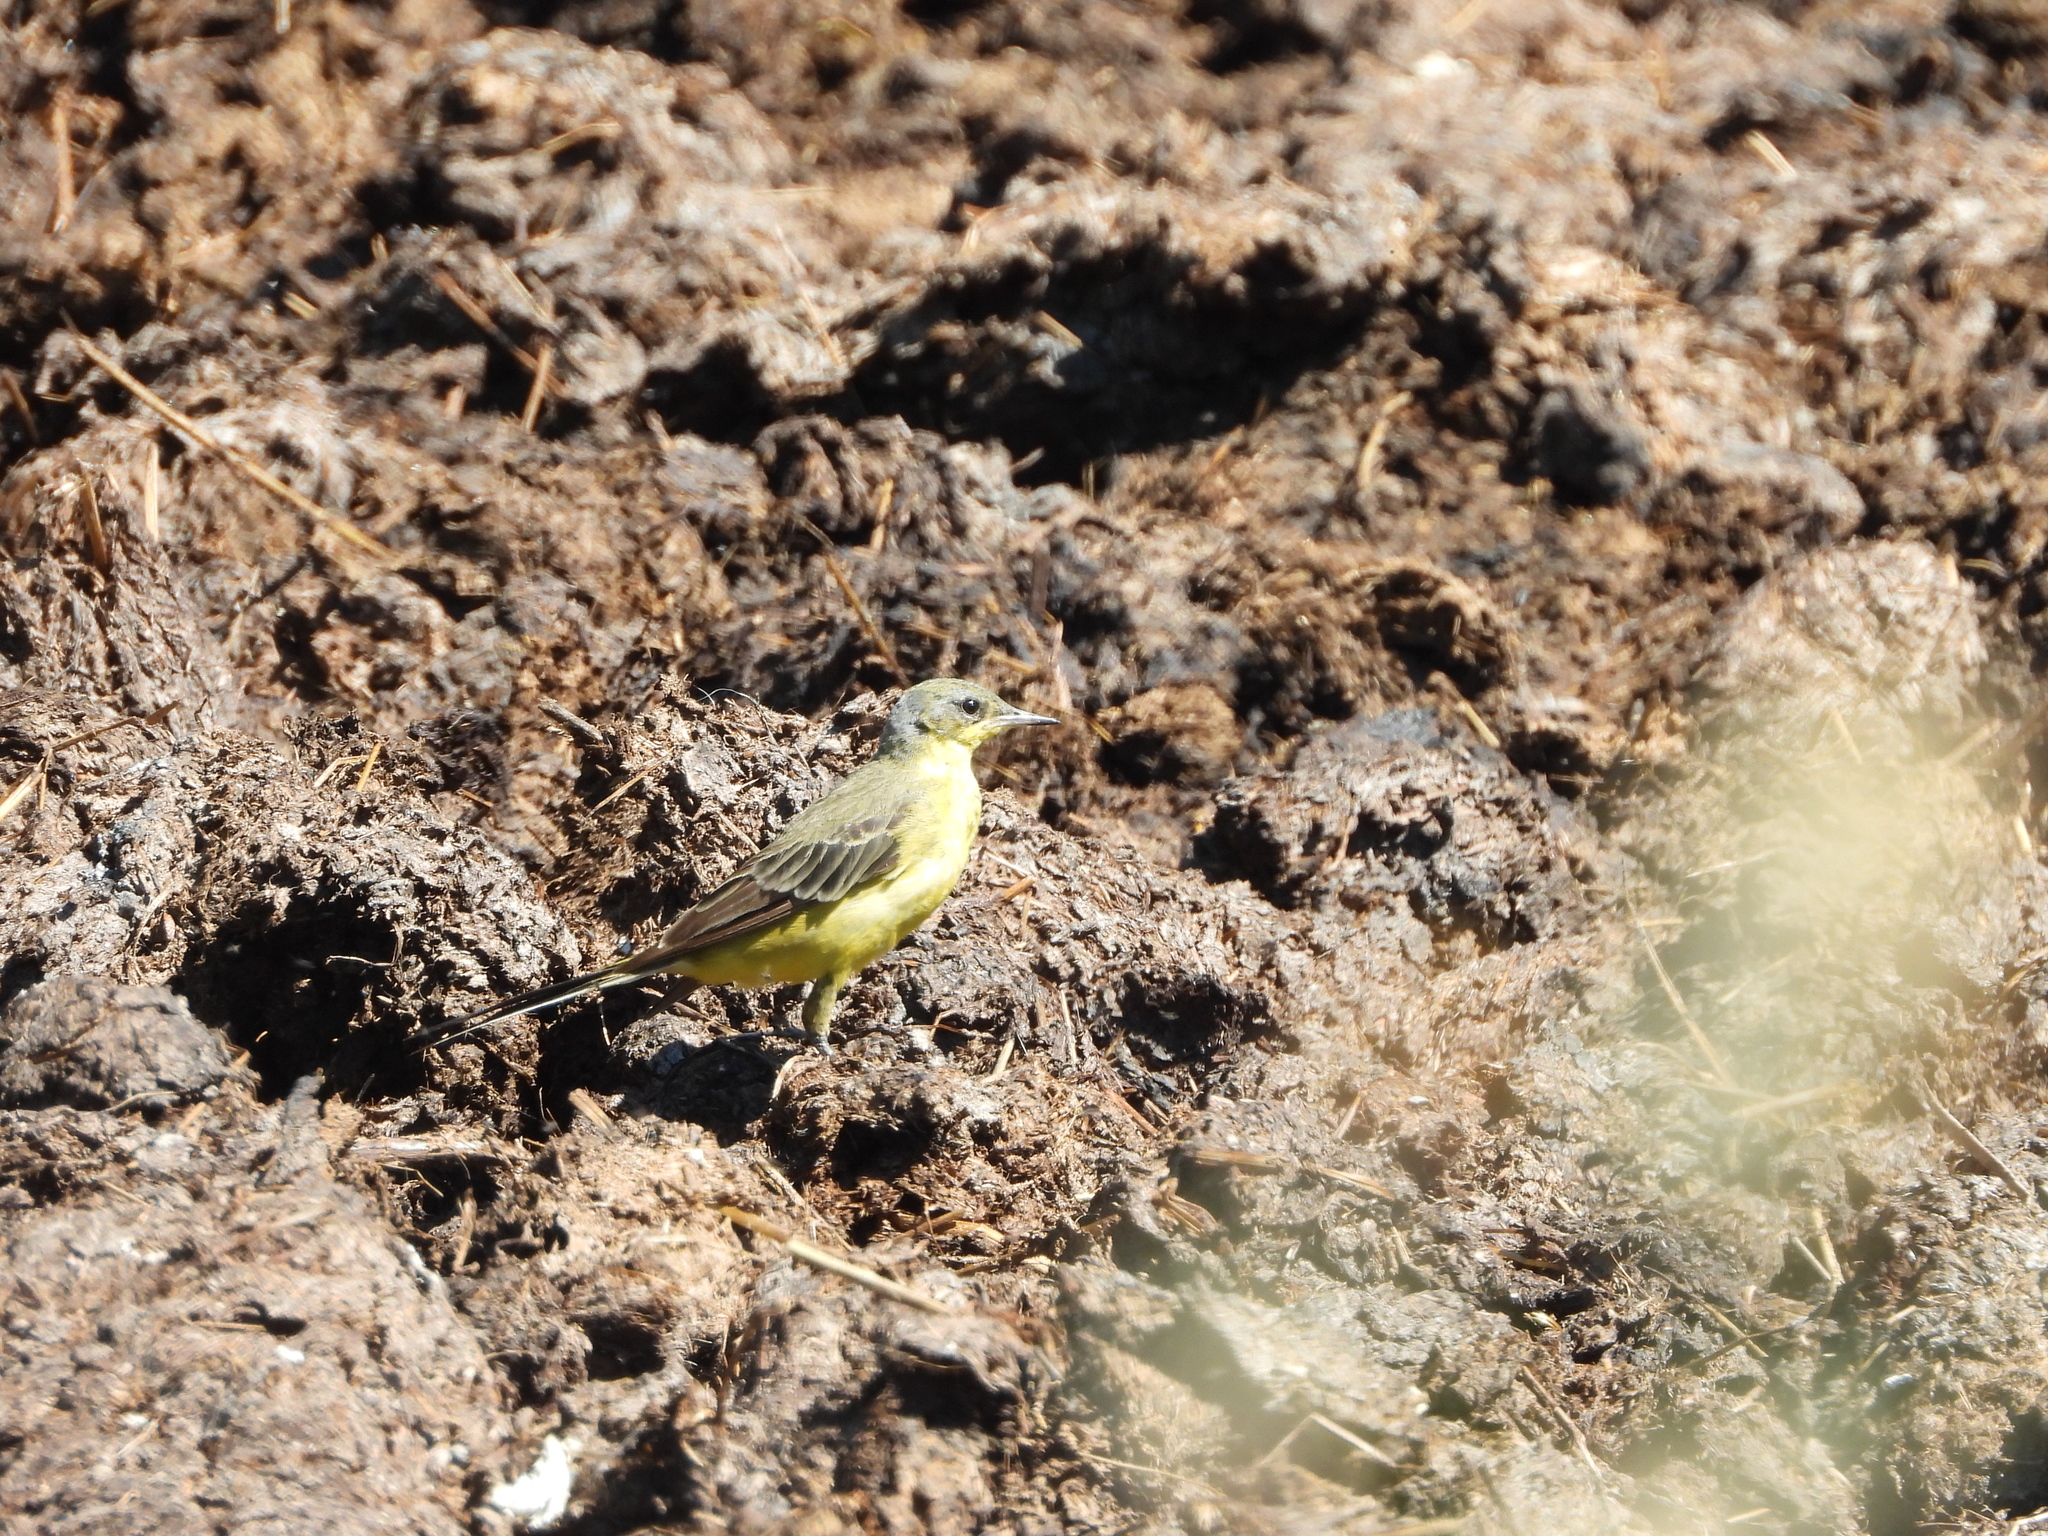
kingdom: Animalia
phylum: Chordata
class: Aves
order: Passeriformes
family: Motacillidae
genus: Motacilla
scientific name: Motacilla flava
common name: Western yellow wagtail
